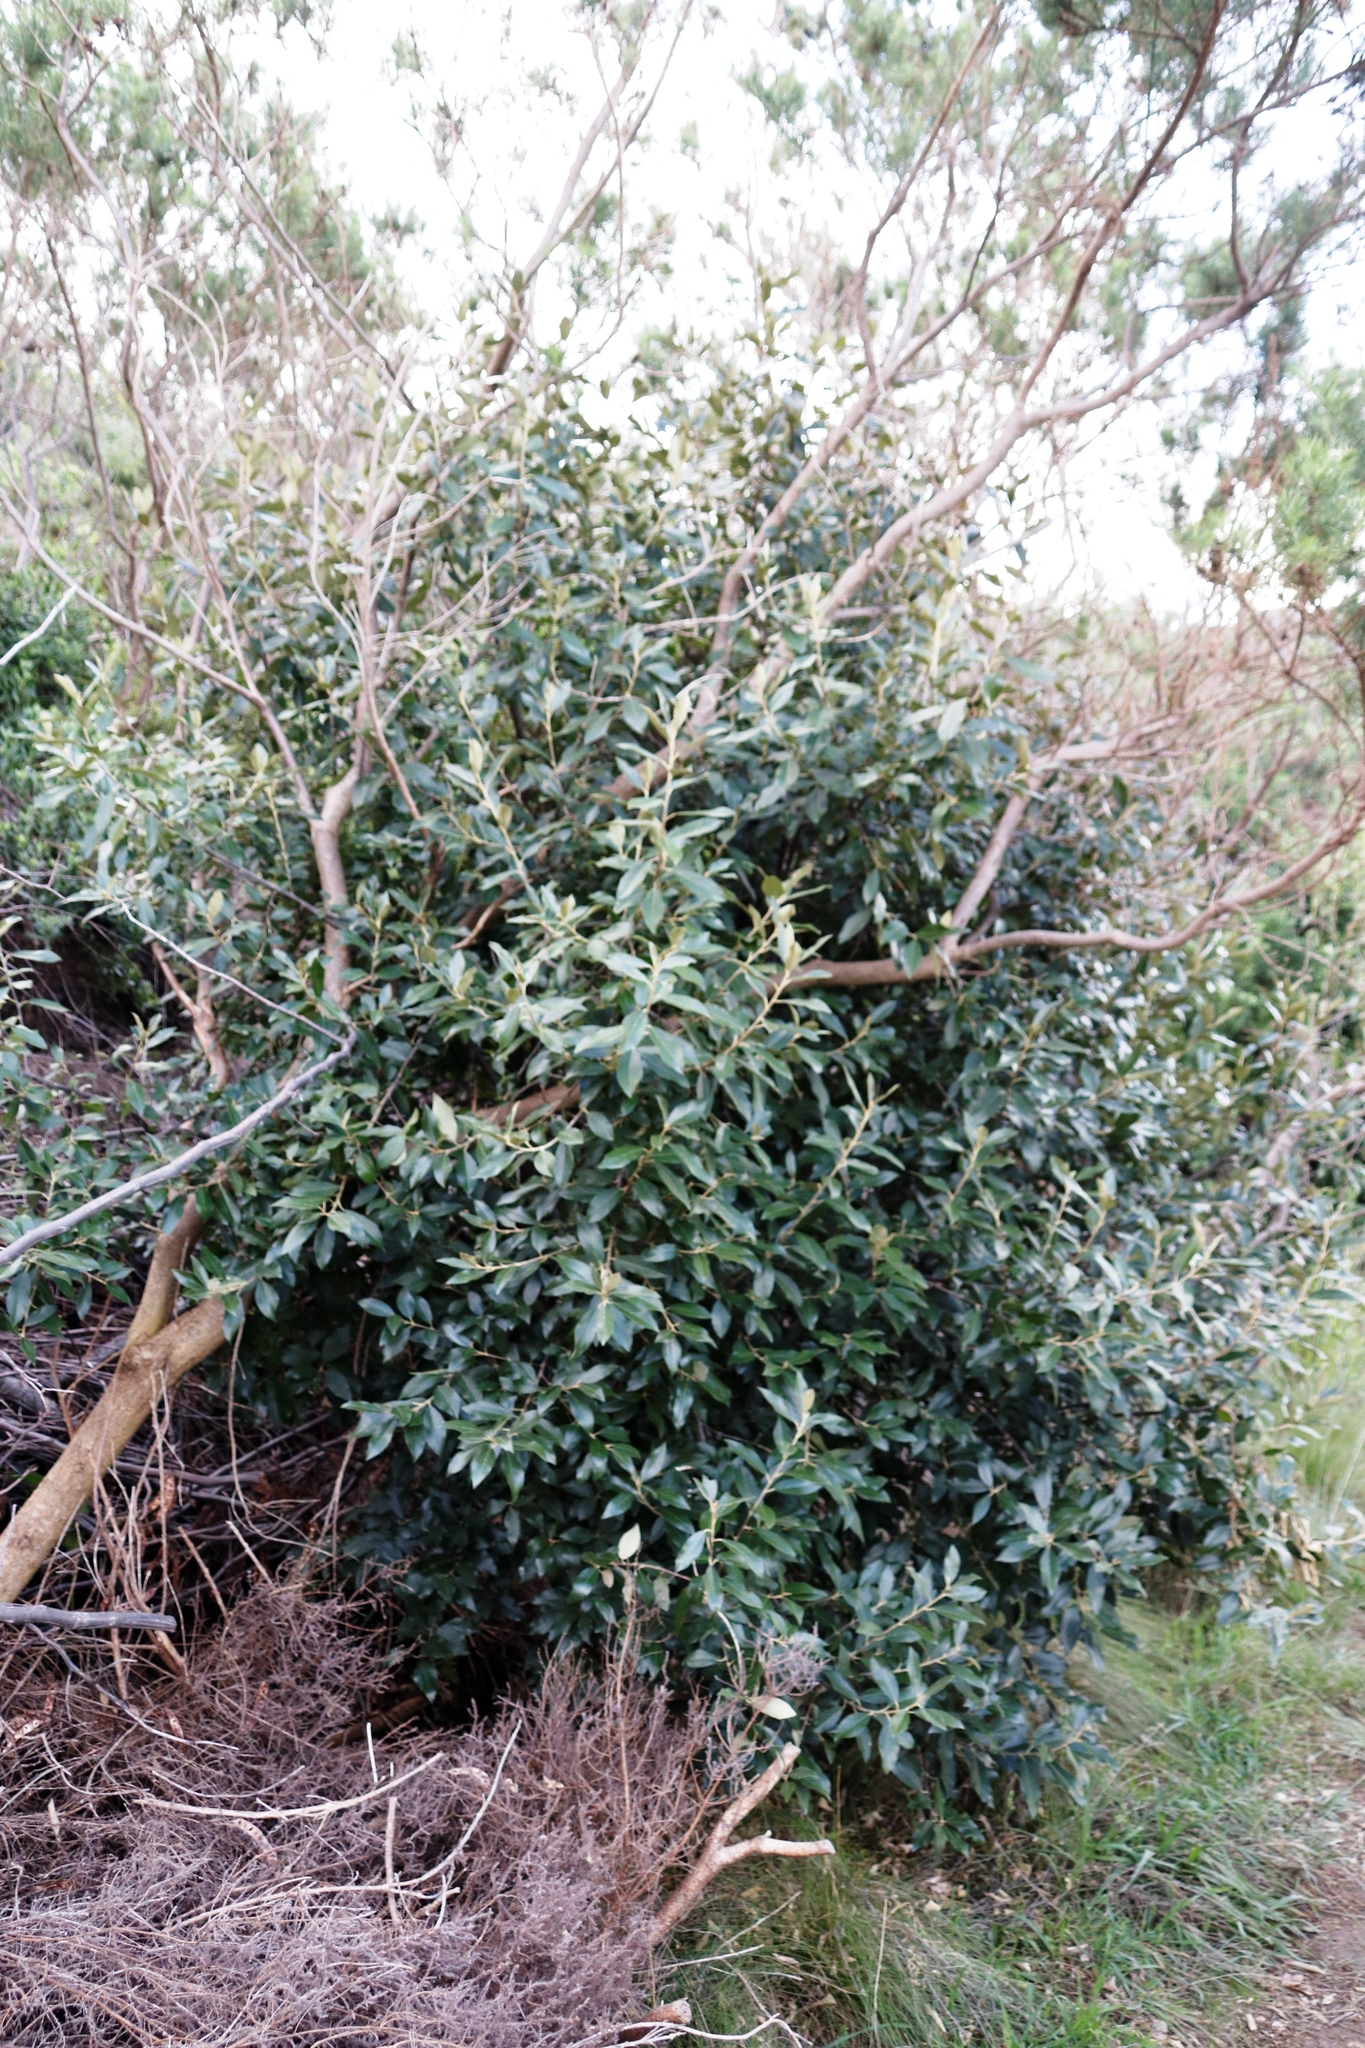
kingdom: Plantae
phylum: Tracheophyta
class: Magnoliopsida
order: Malpighiales
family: Achariaceae
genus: Kiggelaria
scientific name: Kiggelaria africana
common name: Wild peach
